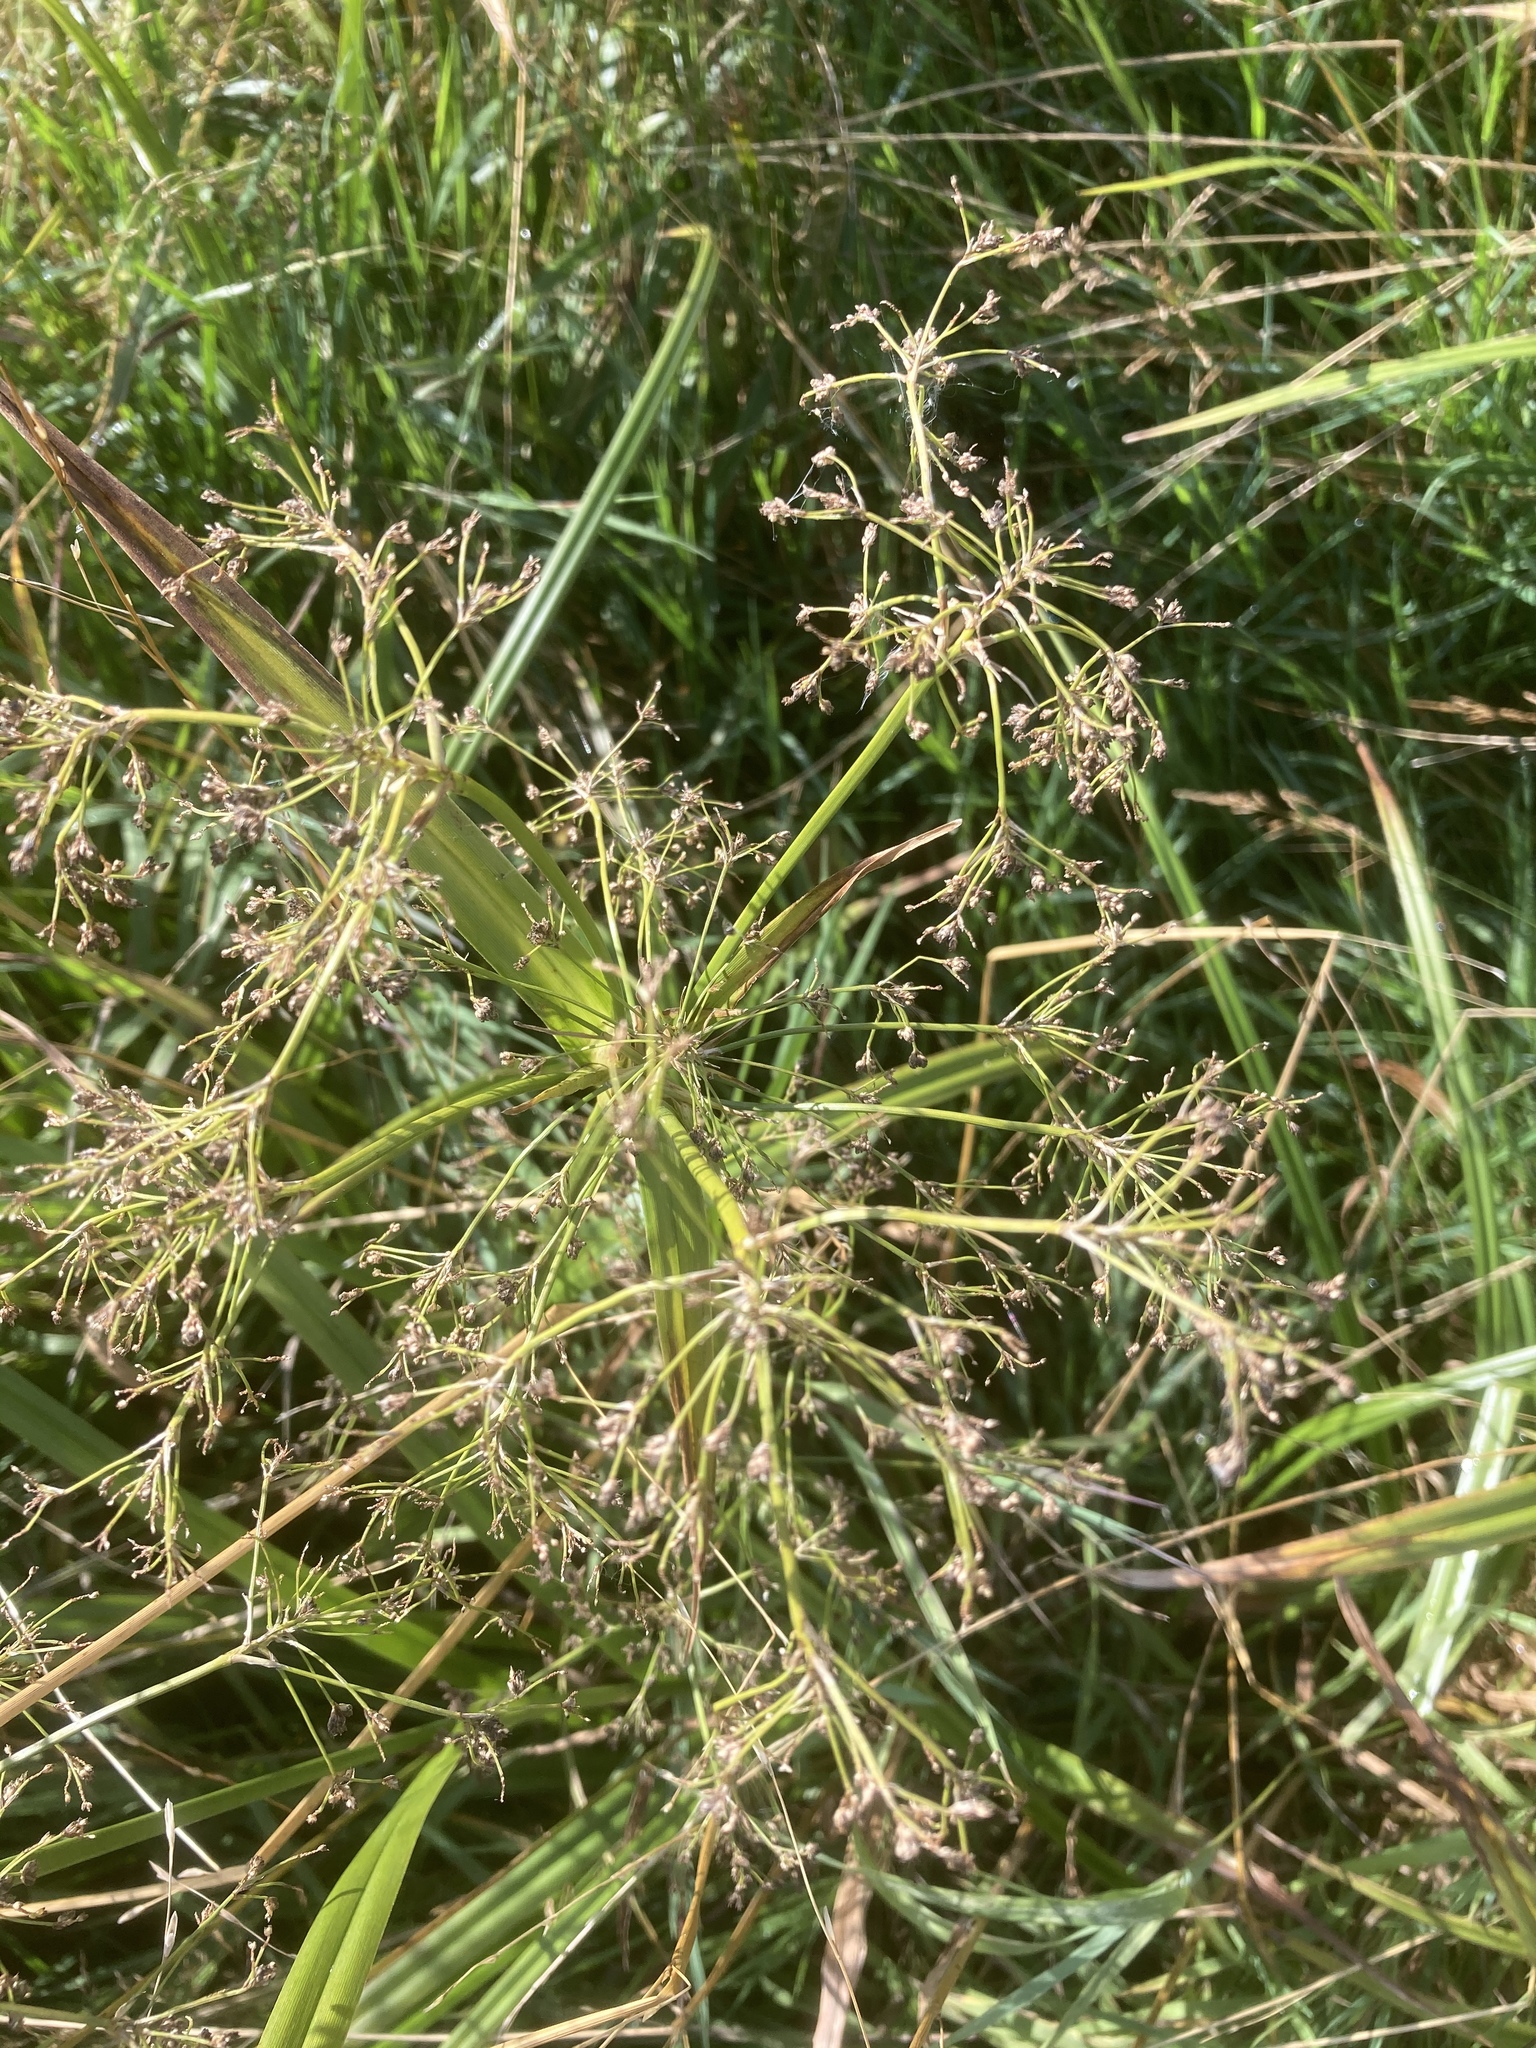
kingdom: Plantae
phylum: Tracheophyta
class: Liliopsida
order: Poales
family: Cyperaceae
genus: Scirpus
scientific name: Scirpus sylvaticus
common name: Wood club-rush
